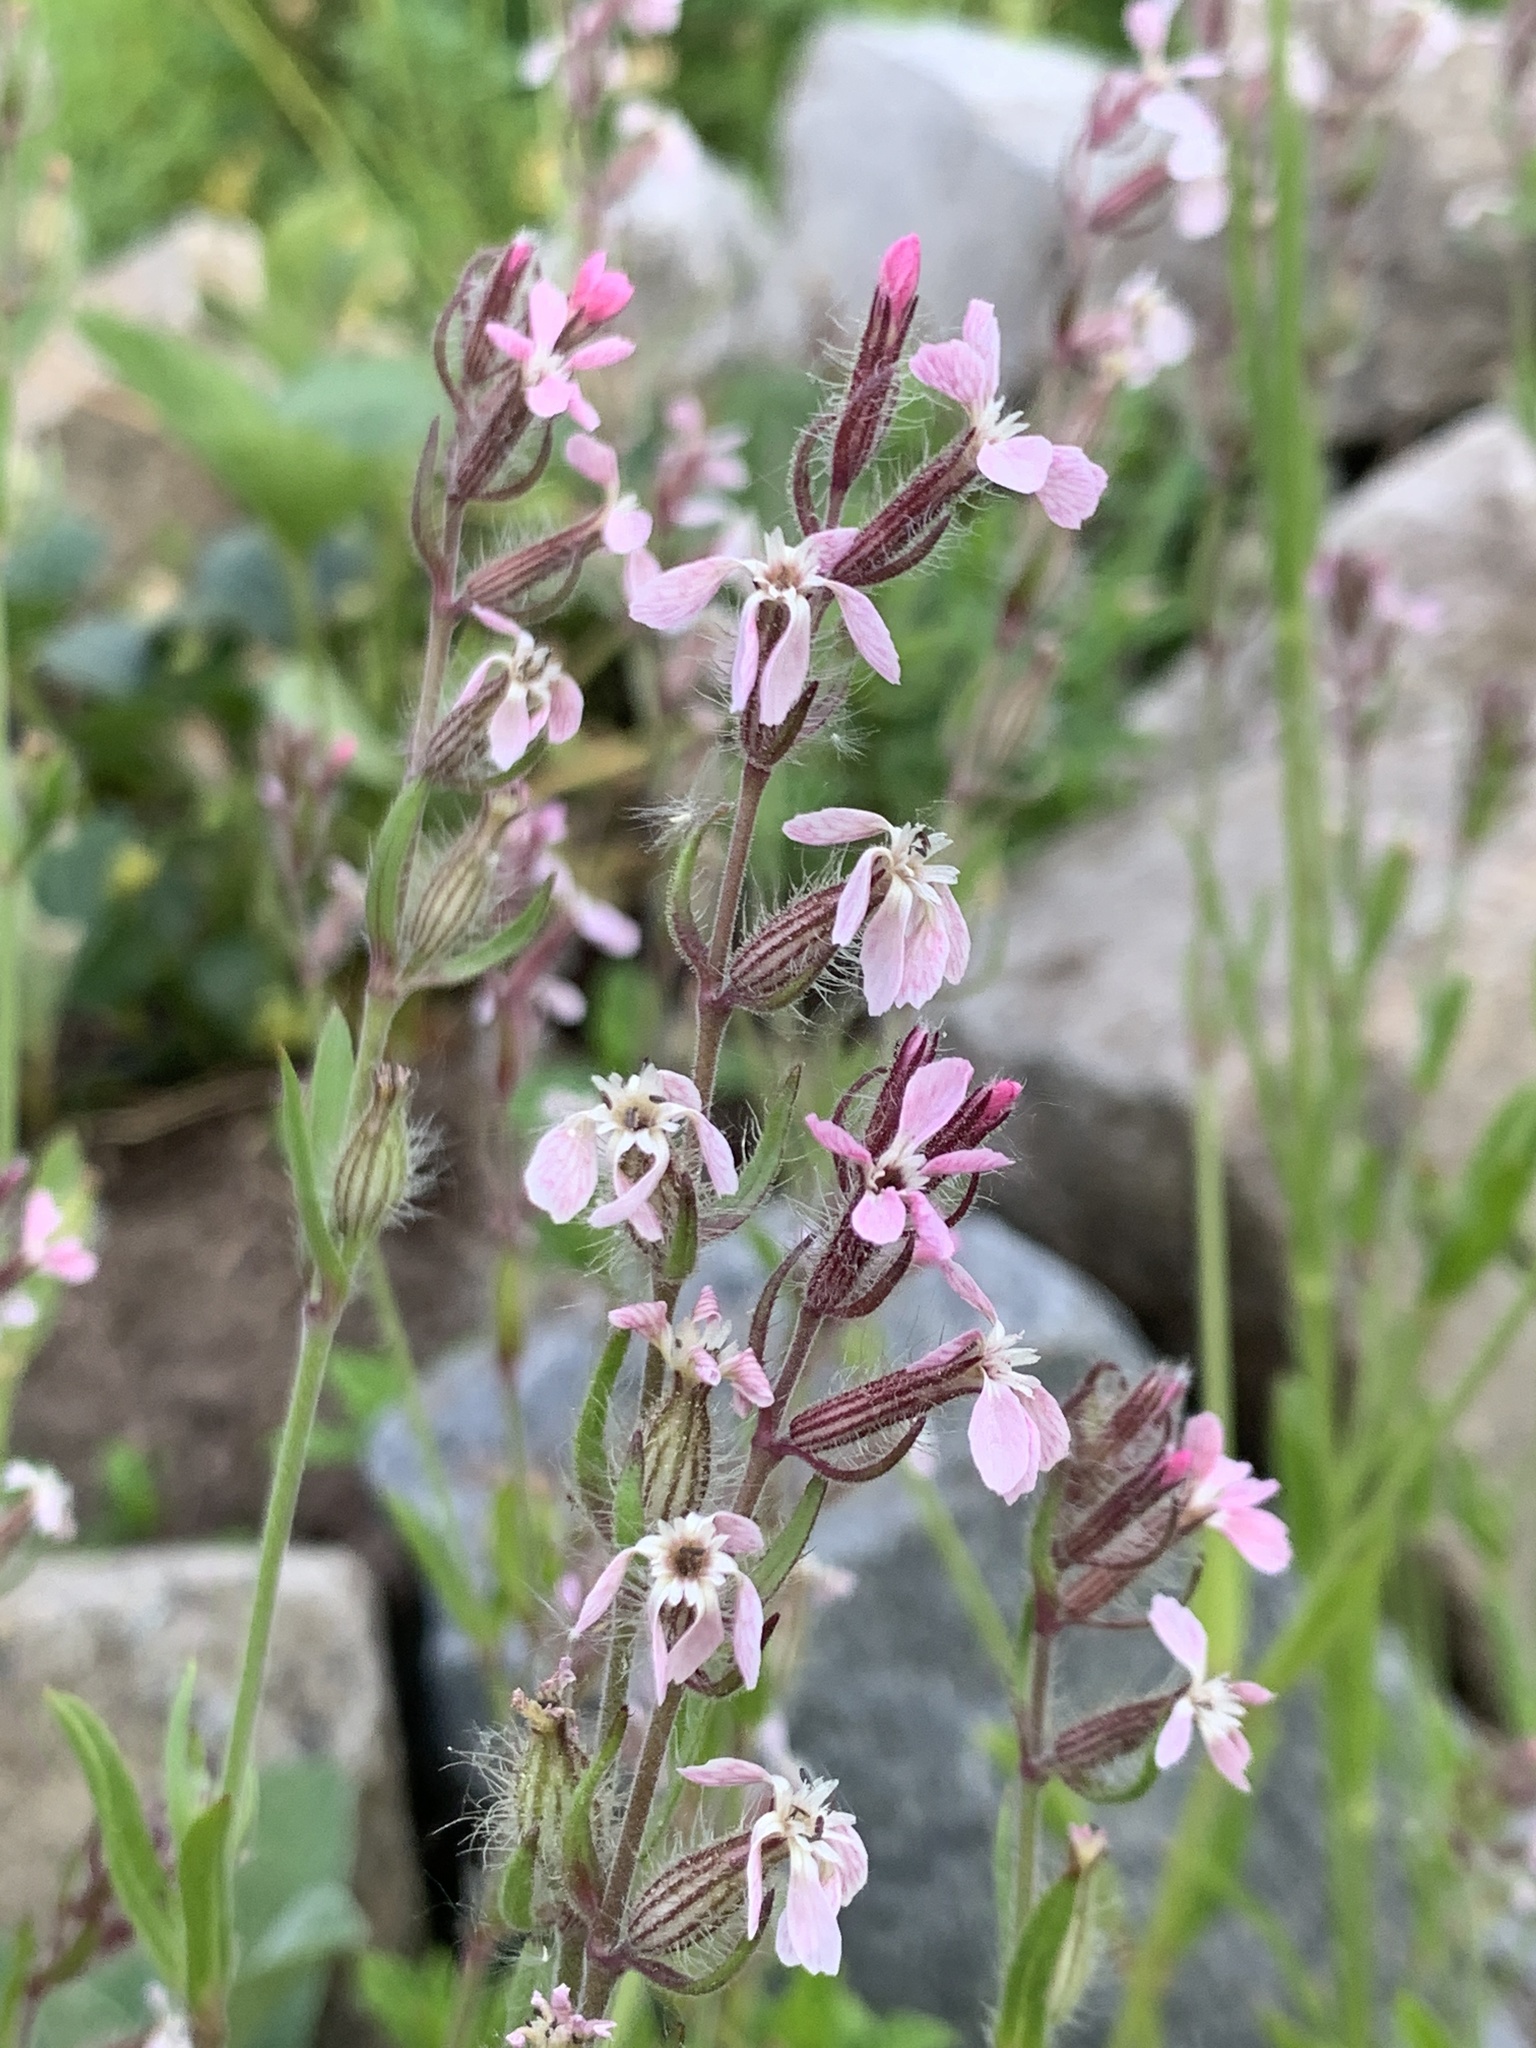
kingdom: Plantae
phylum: Tracheophyta
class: Magnoliopsida
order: Caryophyllales
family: Caryophyllaceae
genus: Silene
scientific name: Silene gallica
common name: Small-flowered catchfly
